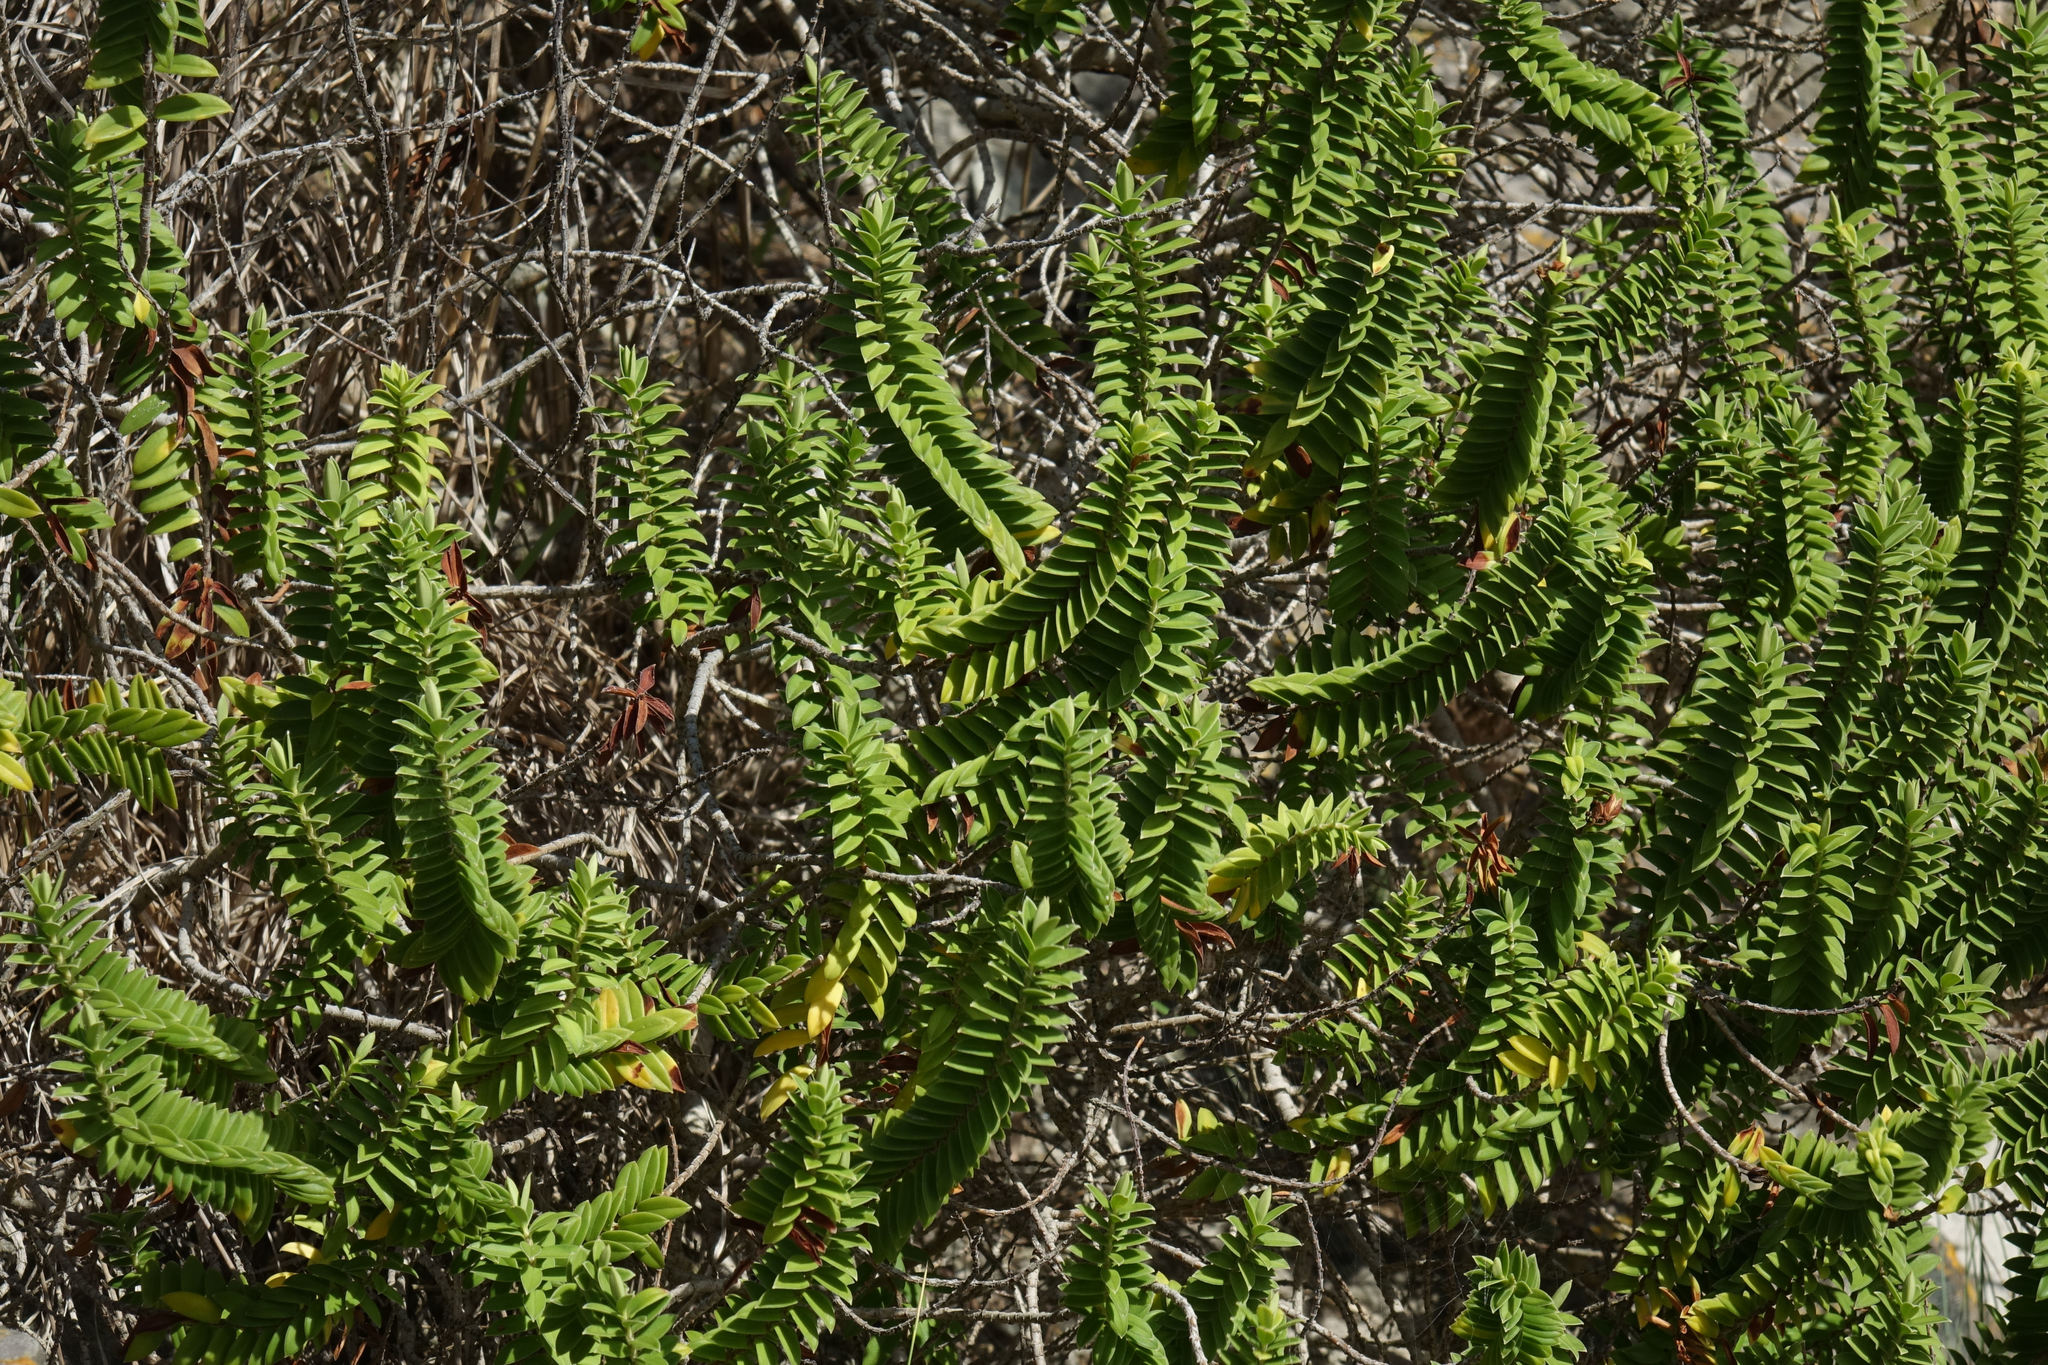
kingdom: Plantae
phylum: Tracheophyta
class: Magnoliopsida
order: Lamiales
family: Plantaginaceae
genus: Veronica
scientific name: Veronica elliptica
